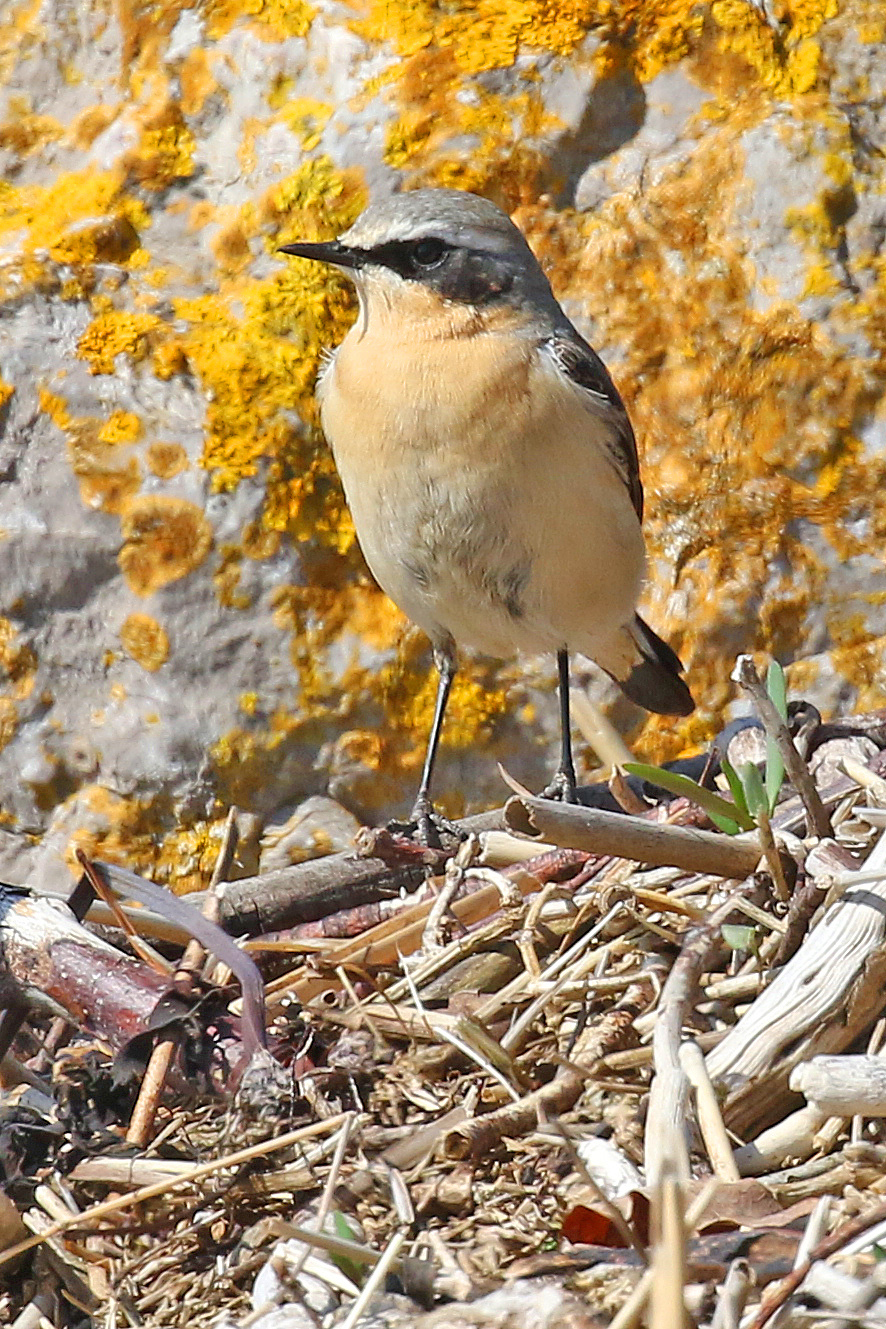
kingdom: Animalia
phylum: Chordata
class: Aves
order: Passeriformes
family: Muscicapidae
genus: Oenanthe
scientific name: Oenanthe oenanthe
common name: Northern wheatear
